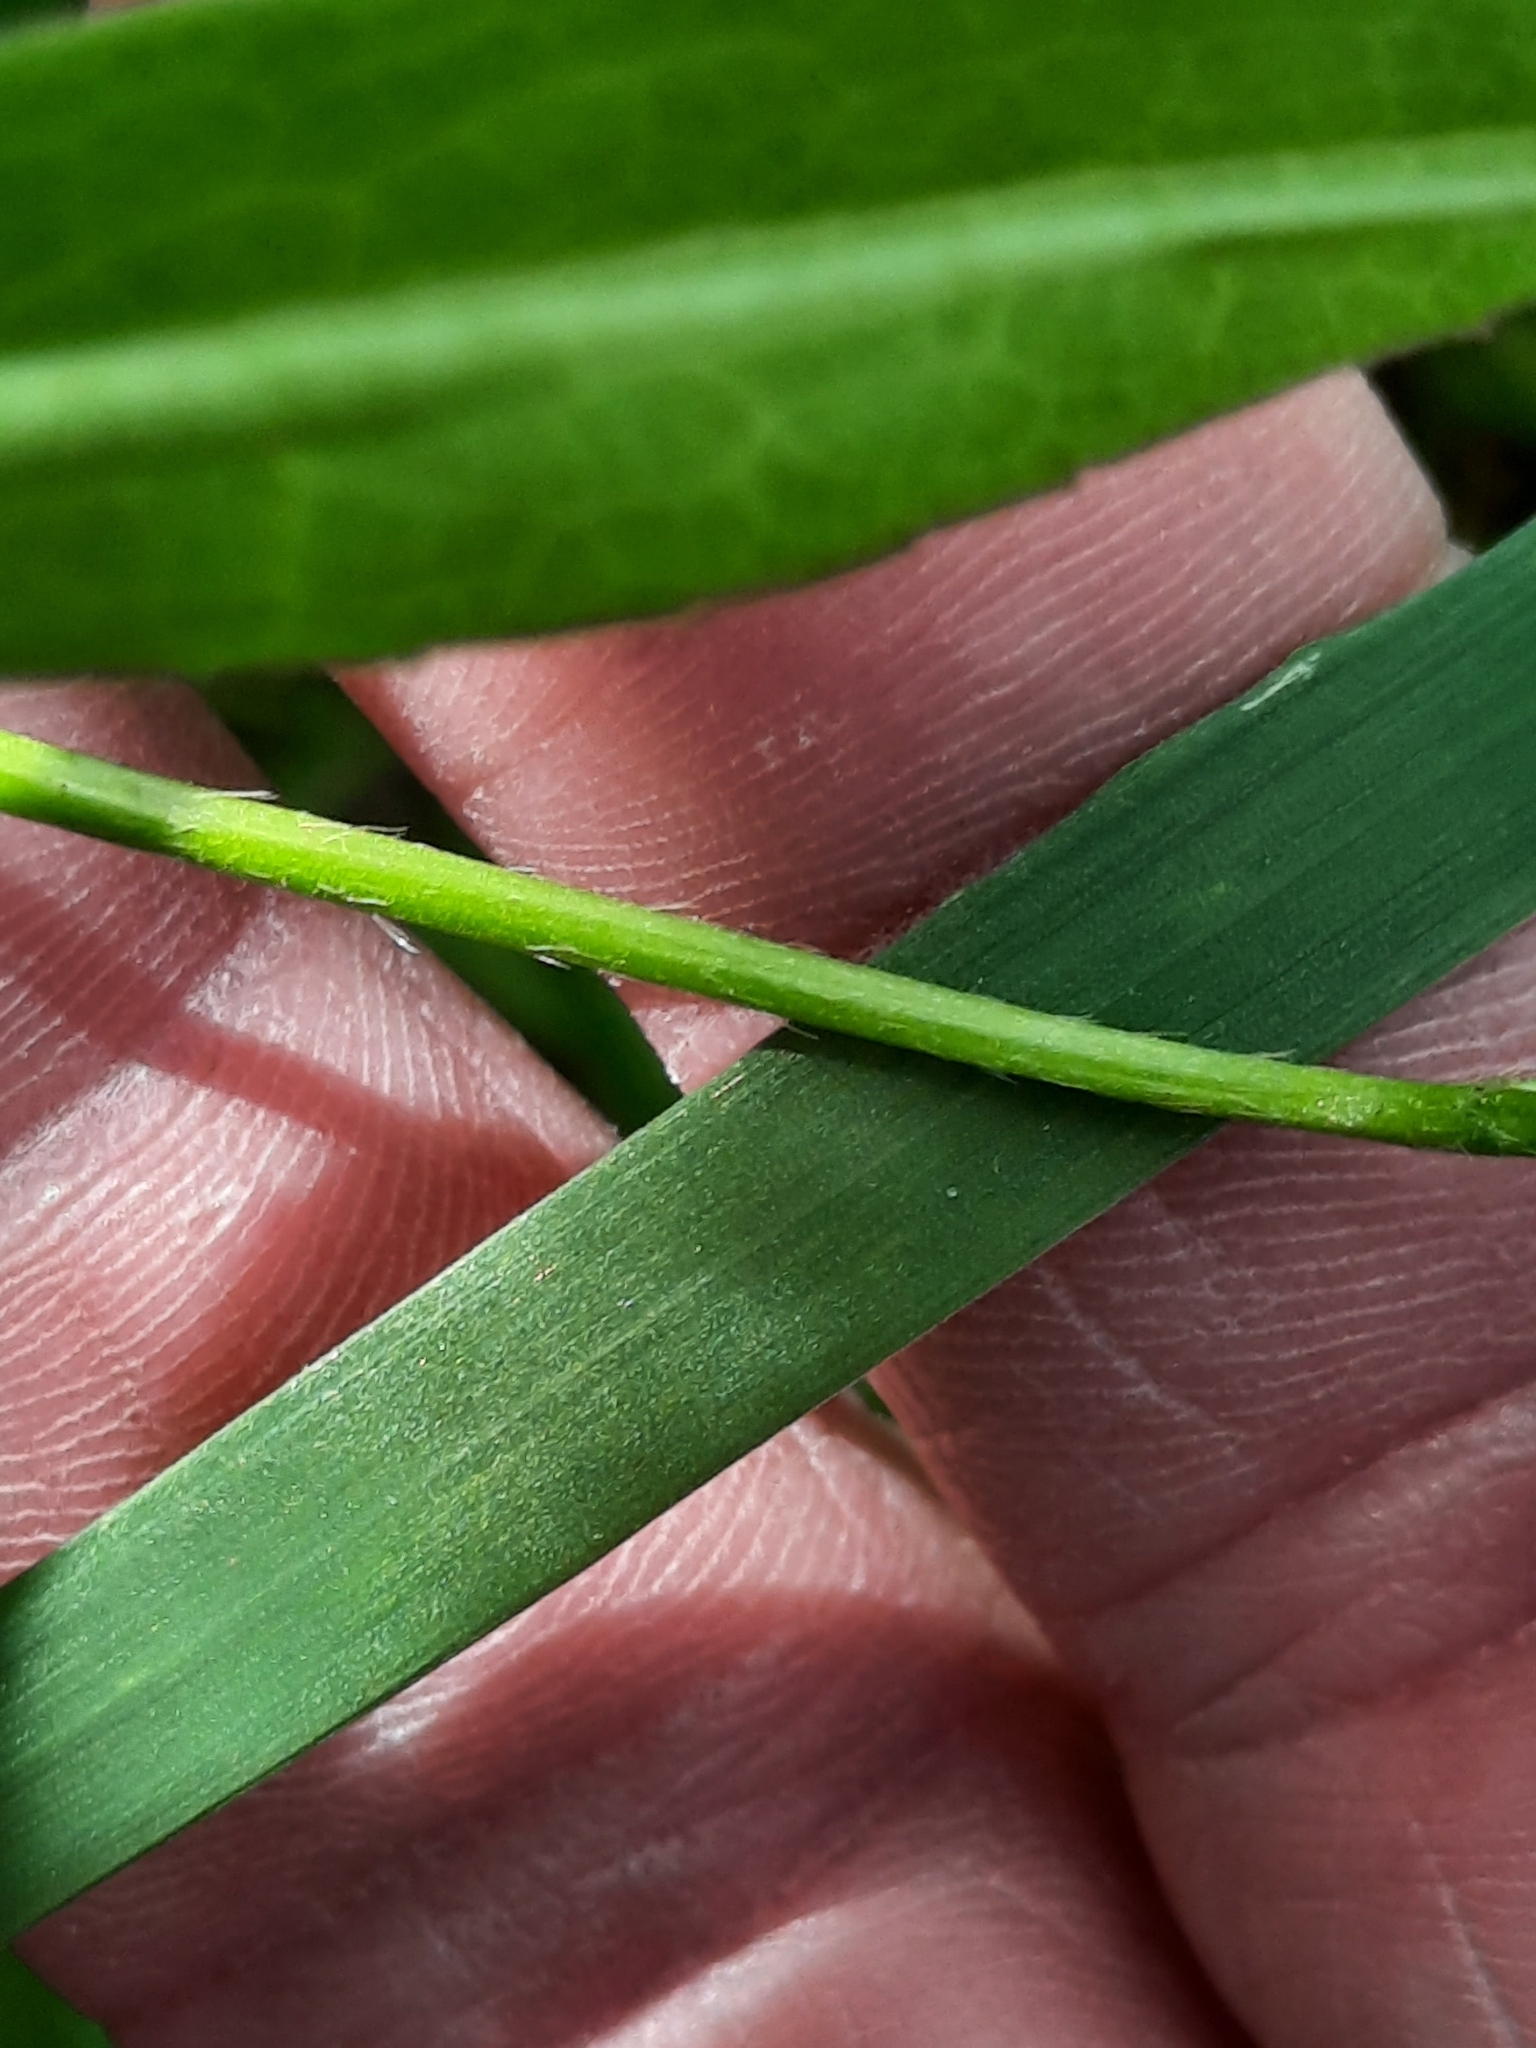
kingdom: Plantae
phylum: Tracheophyta
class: Magnoliopsida
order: Ranunculales
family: Ranunculaceae
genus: Ranunculus
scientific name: Ranunculus recurvatus
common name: Blisterwort
